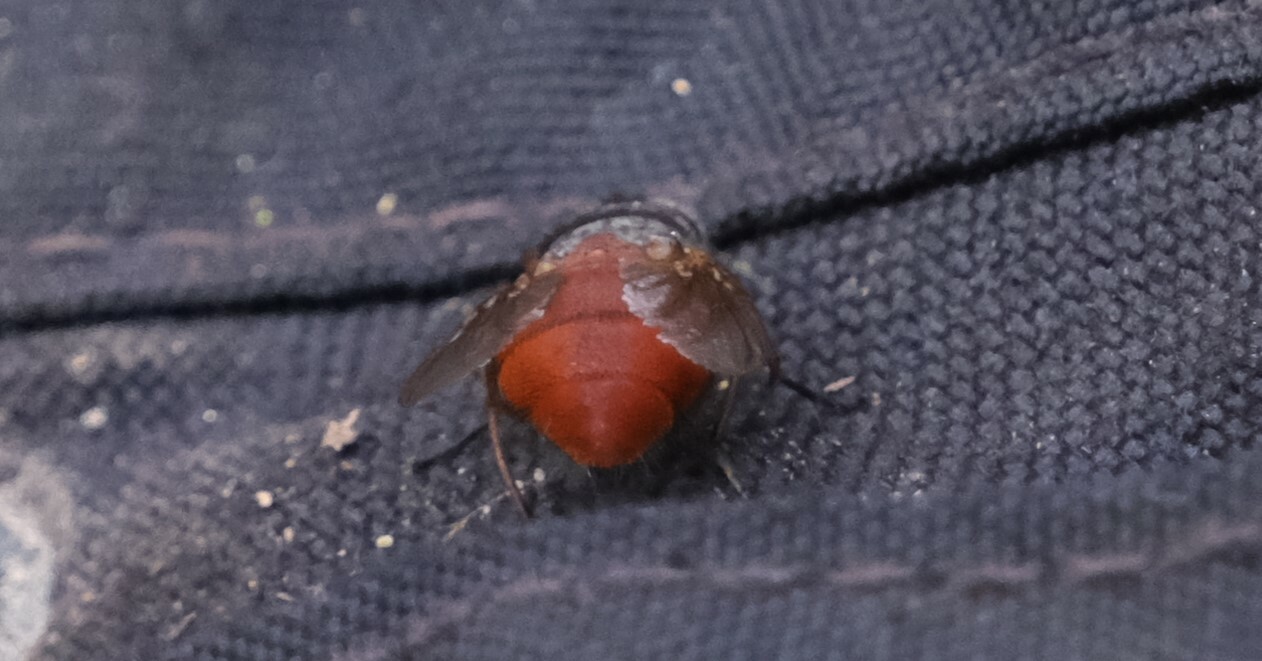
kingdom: Animalia
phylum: Arthropoda
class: Insecta
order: Diptera
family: Calliphoridae
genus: Calliphora
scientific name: Calliphora nigrithorax
